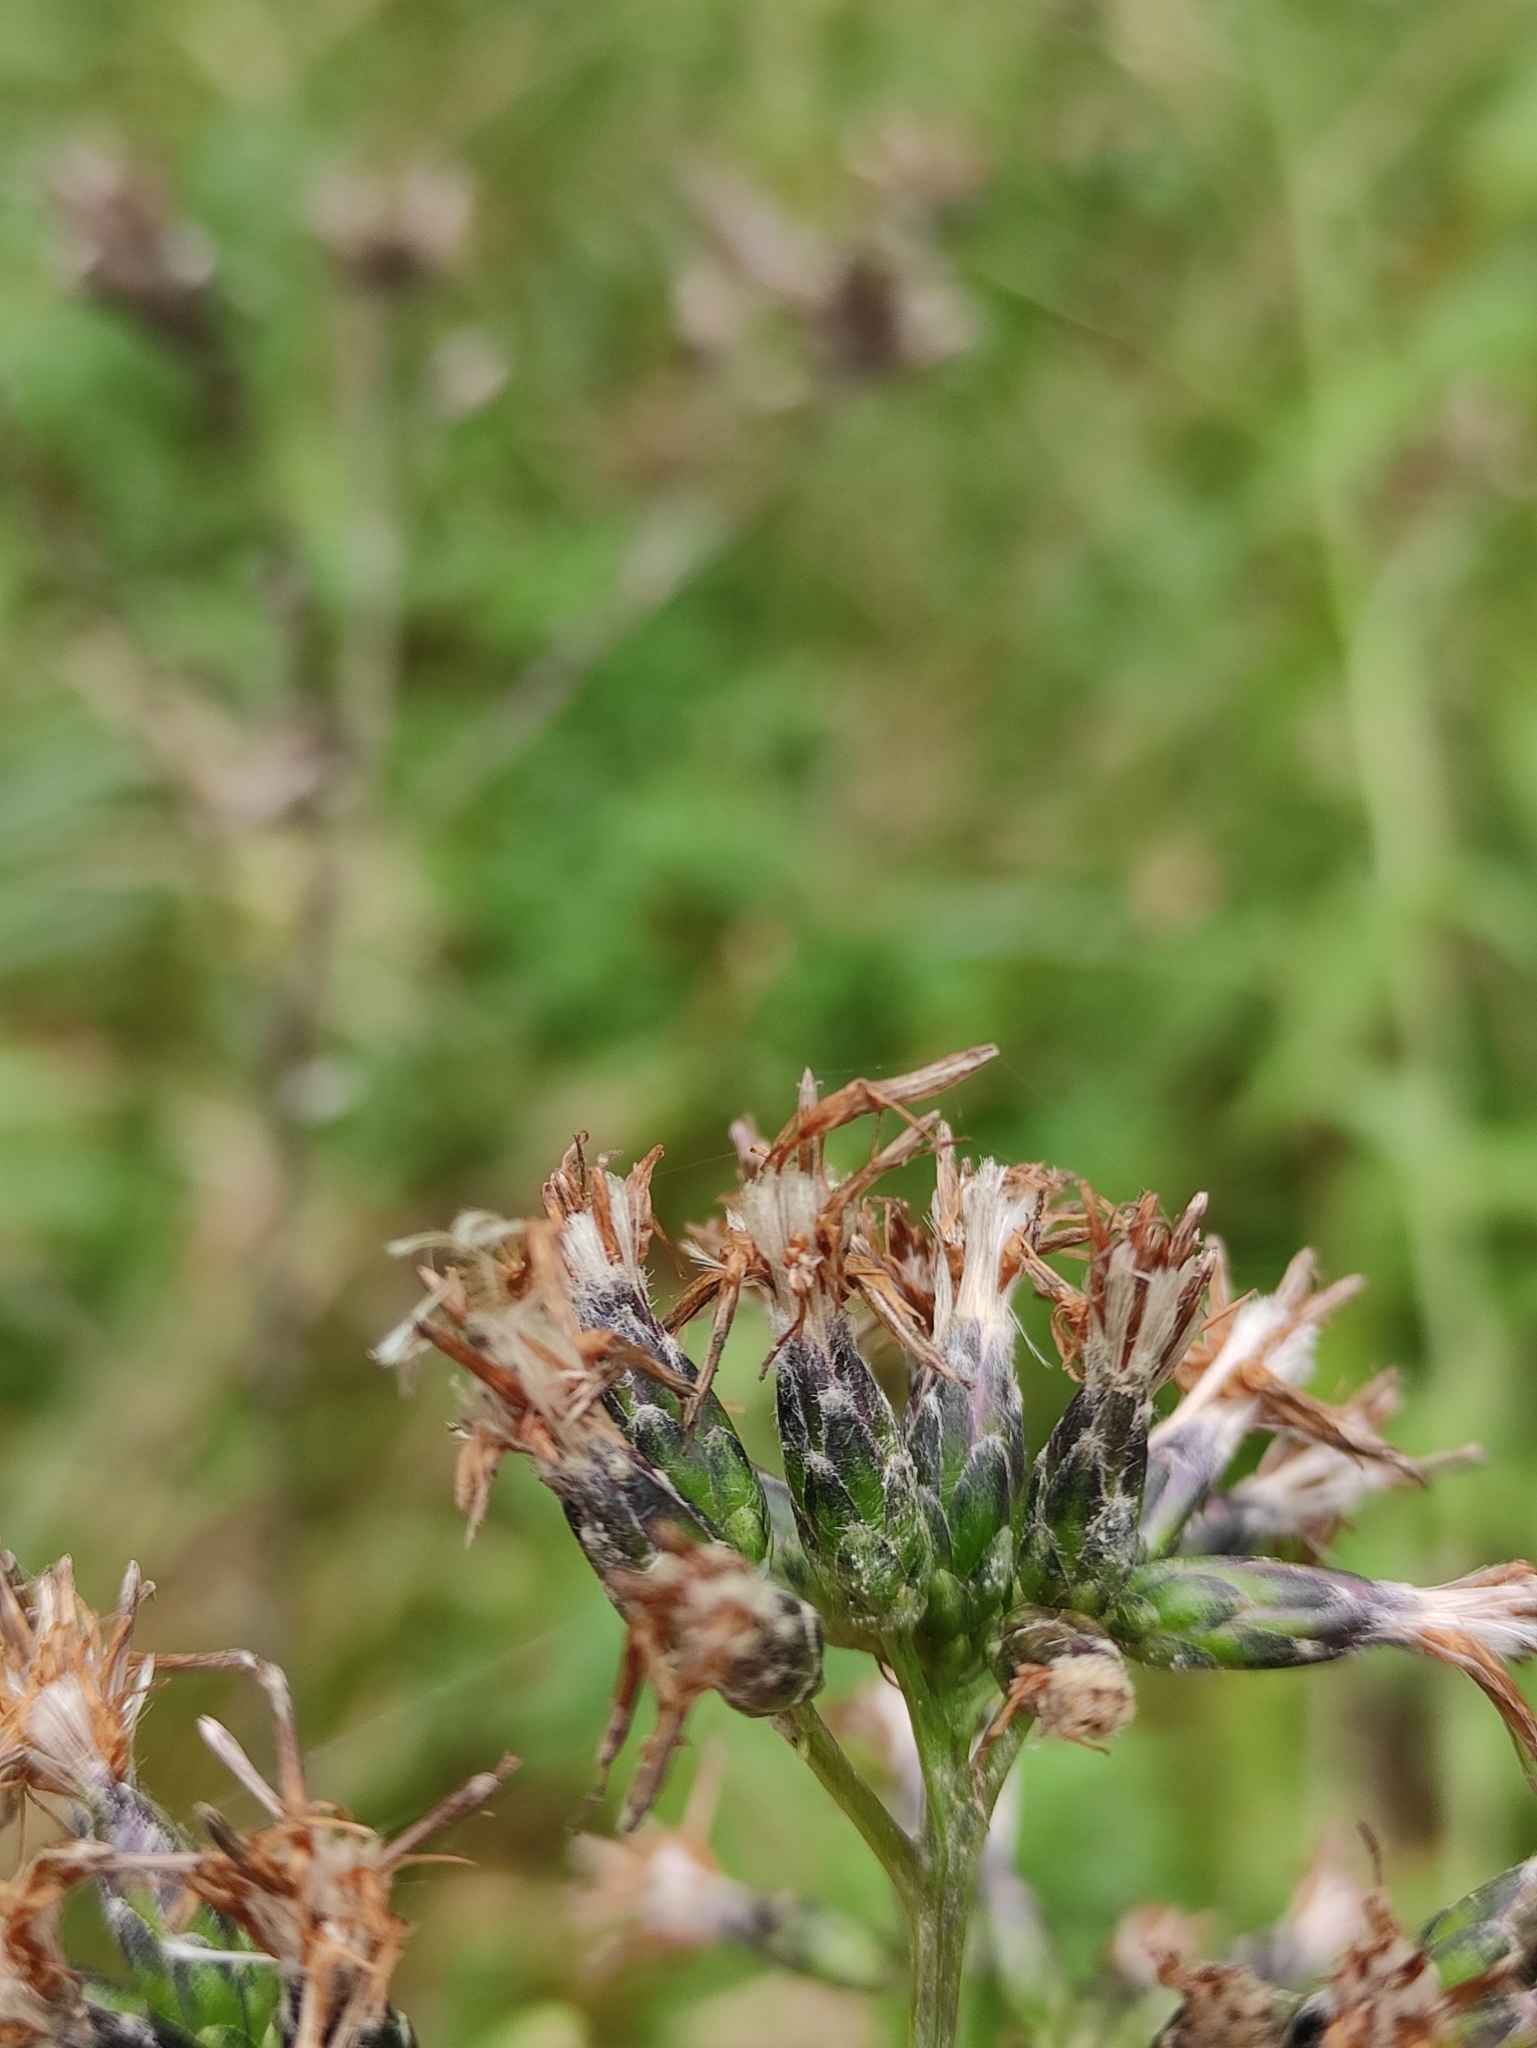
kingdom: Plantae
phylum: Tracheophyta
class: Magnoliopsida
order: Asterales
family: Asteraceae
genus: Saussurea
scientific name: Saussurea parviflora
